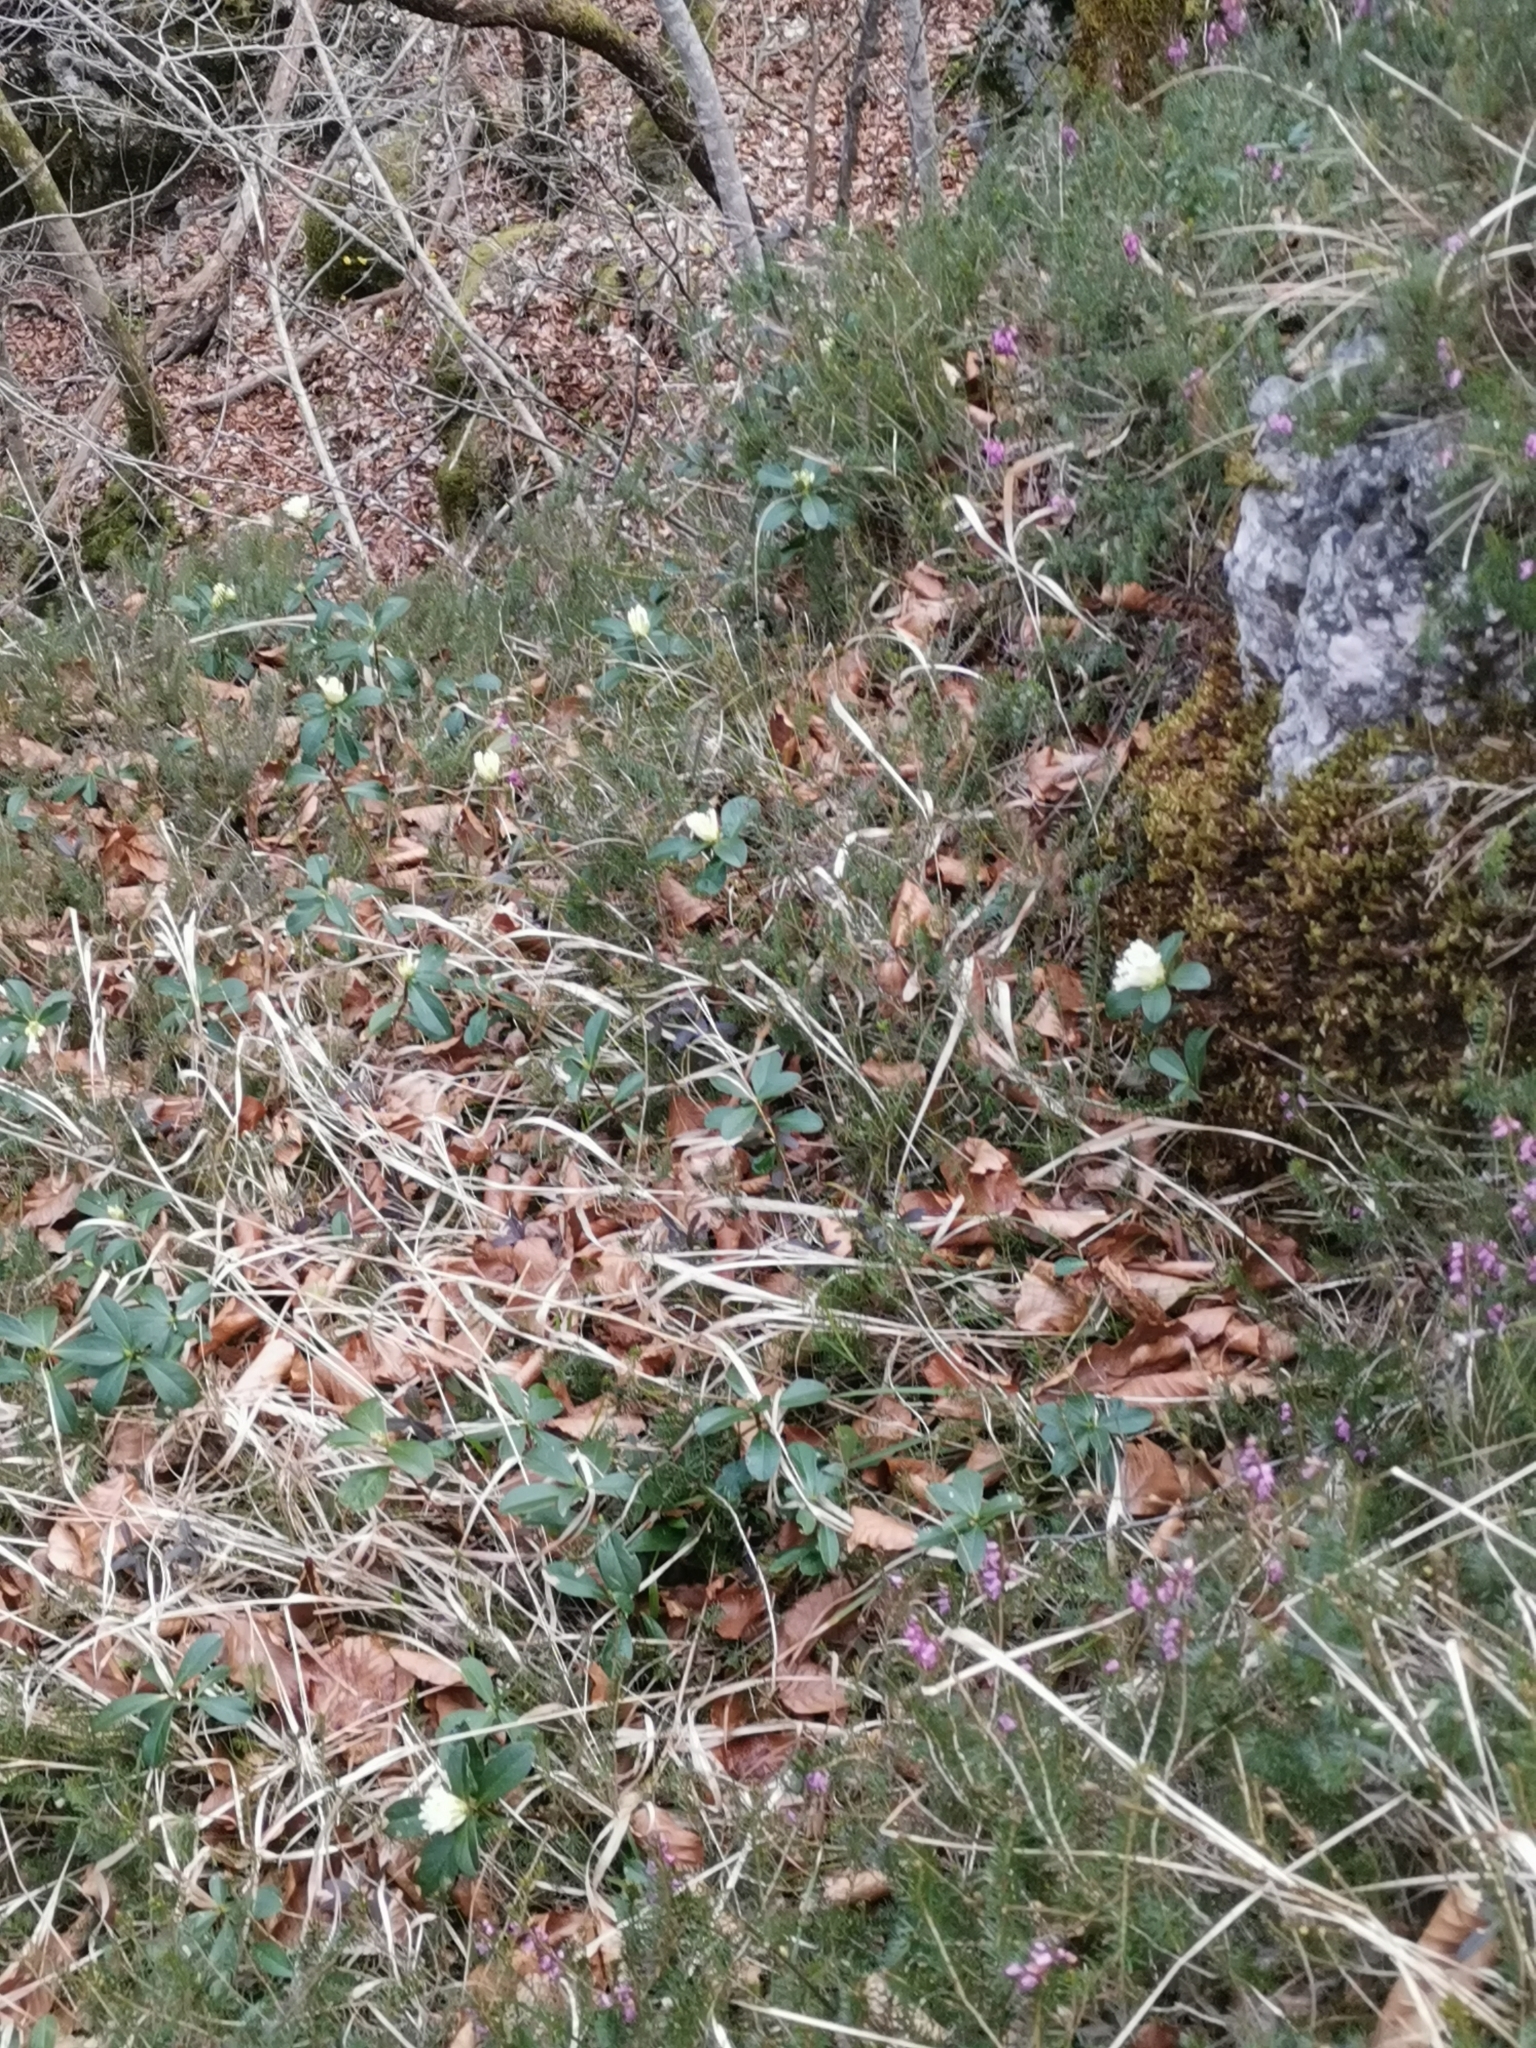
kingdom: Plantae
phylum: Tracheophyta
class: Magnoliopsida
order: Malvales
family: Thymelaeaceae
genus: Daphne
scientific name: Daphne blagayana
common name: Balkan daphne
